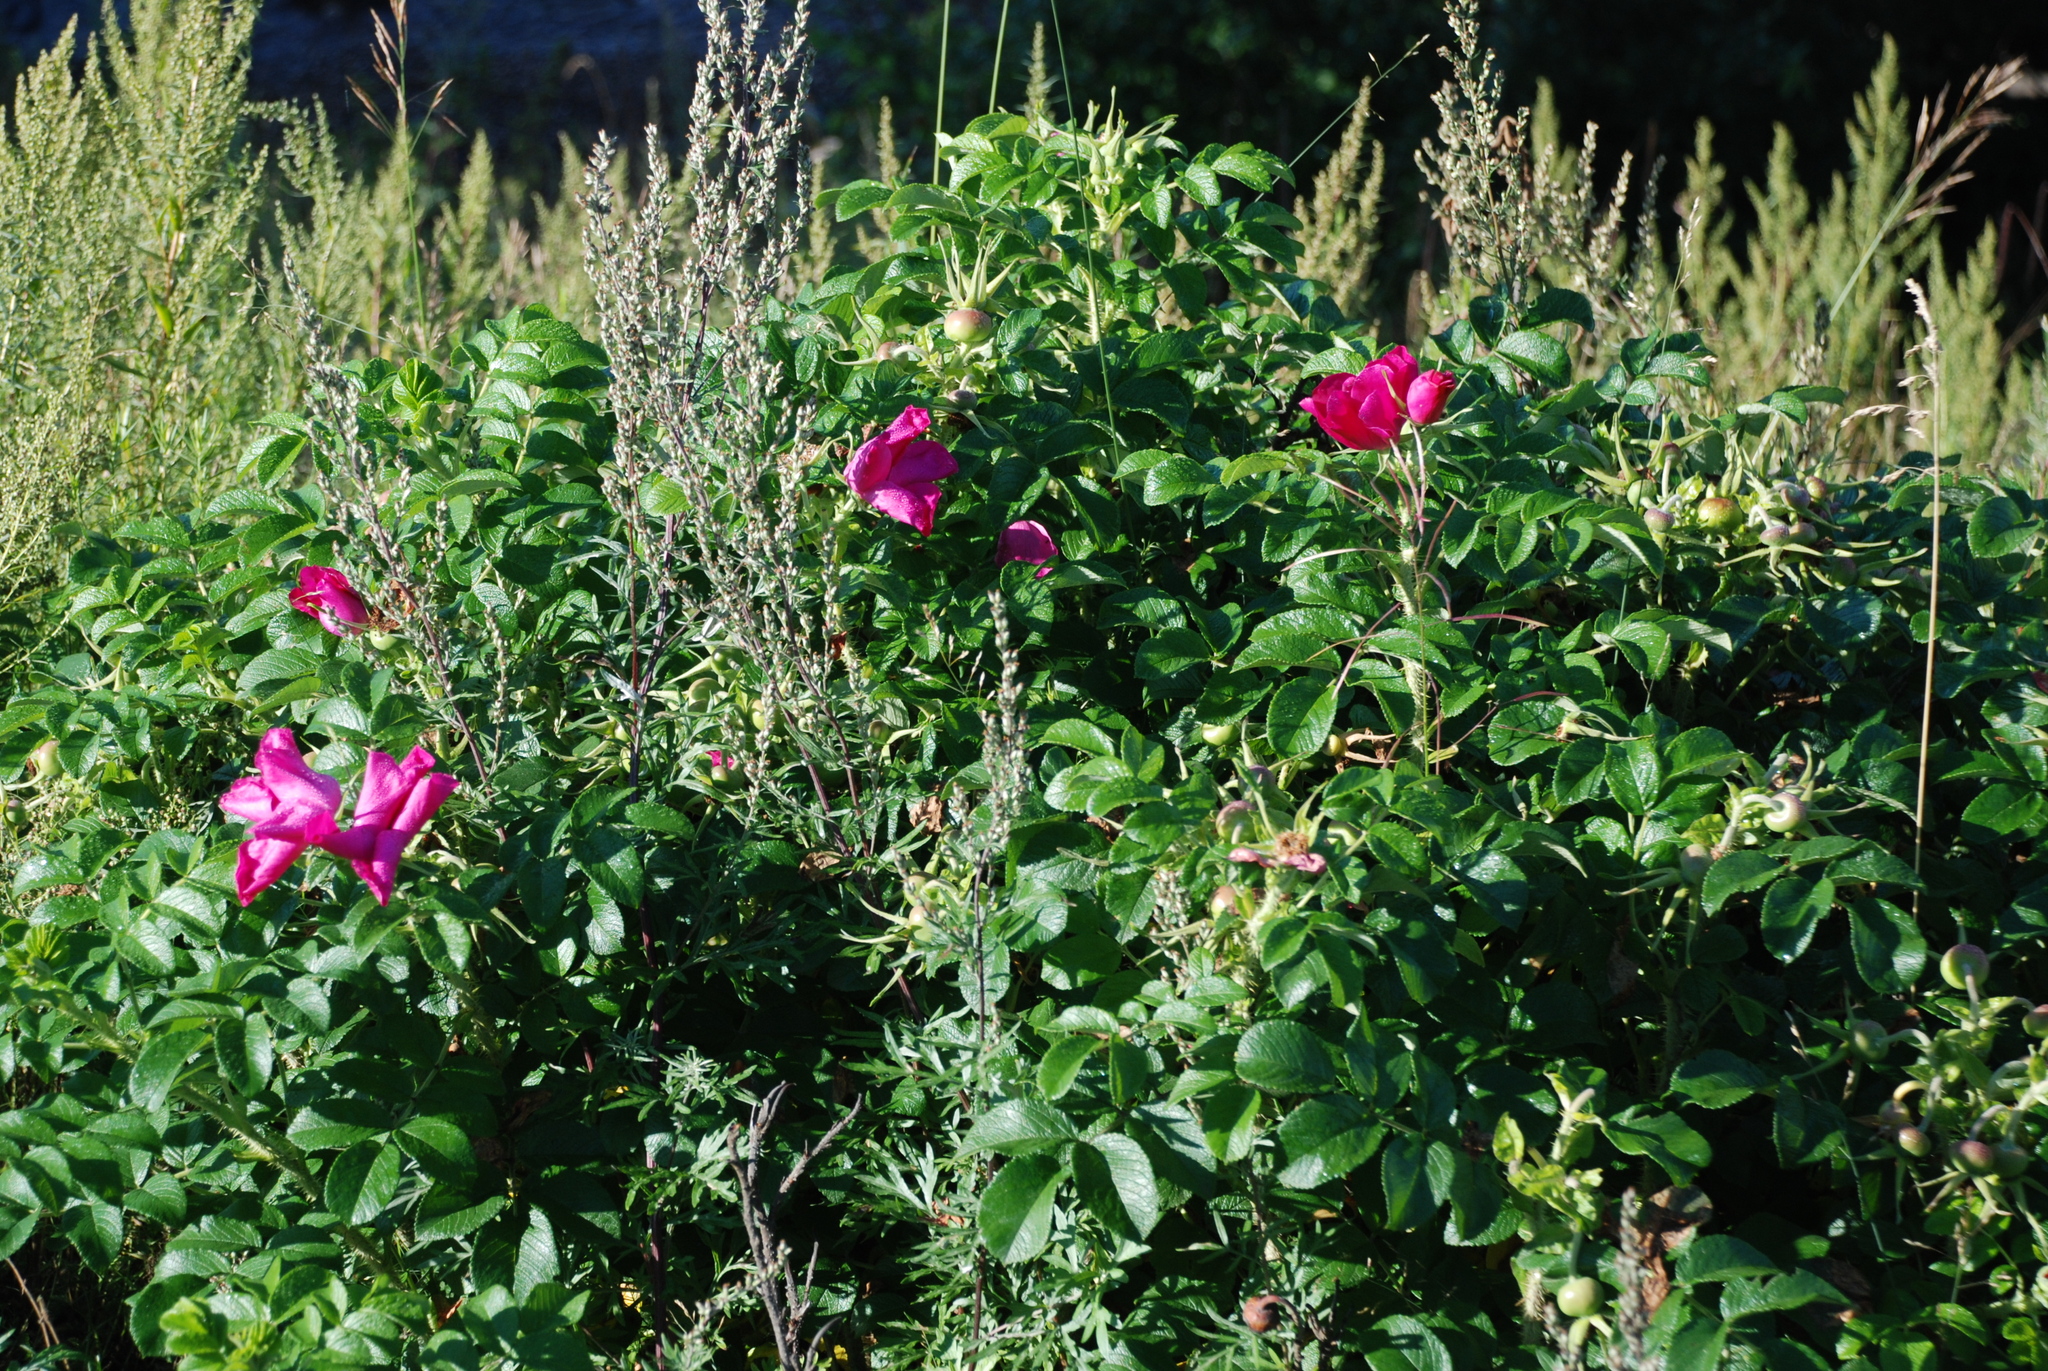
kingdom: Plantae
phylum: Tracheophyta
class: Magnoliopsida
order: Rosales
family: Rosaceae
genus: Rosa
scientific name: Rosa rugosa
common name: Japanese rose
